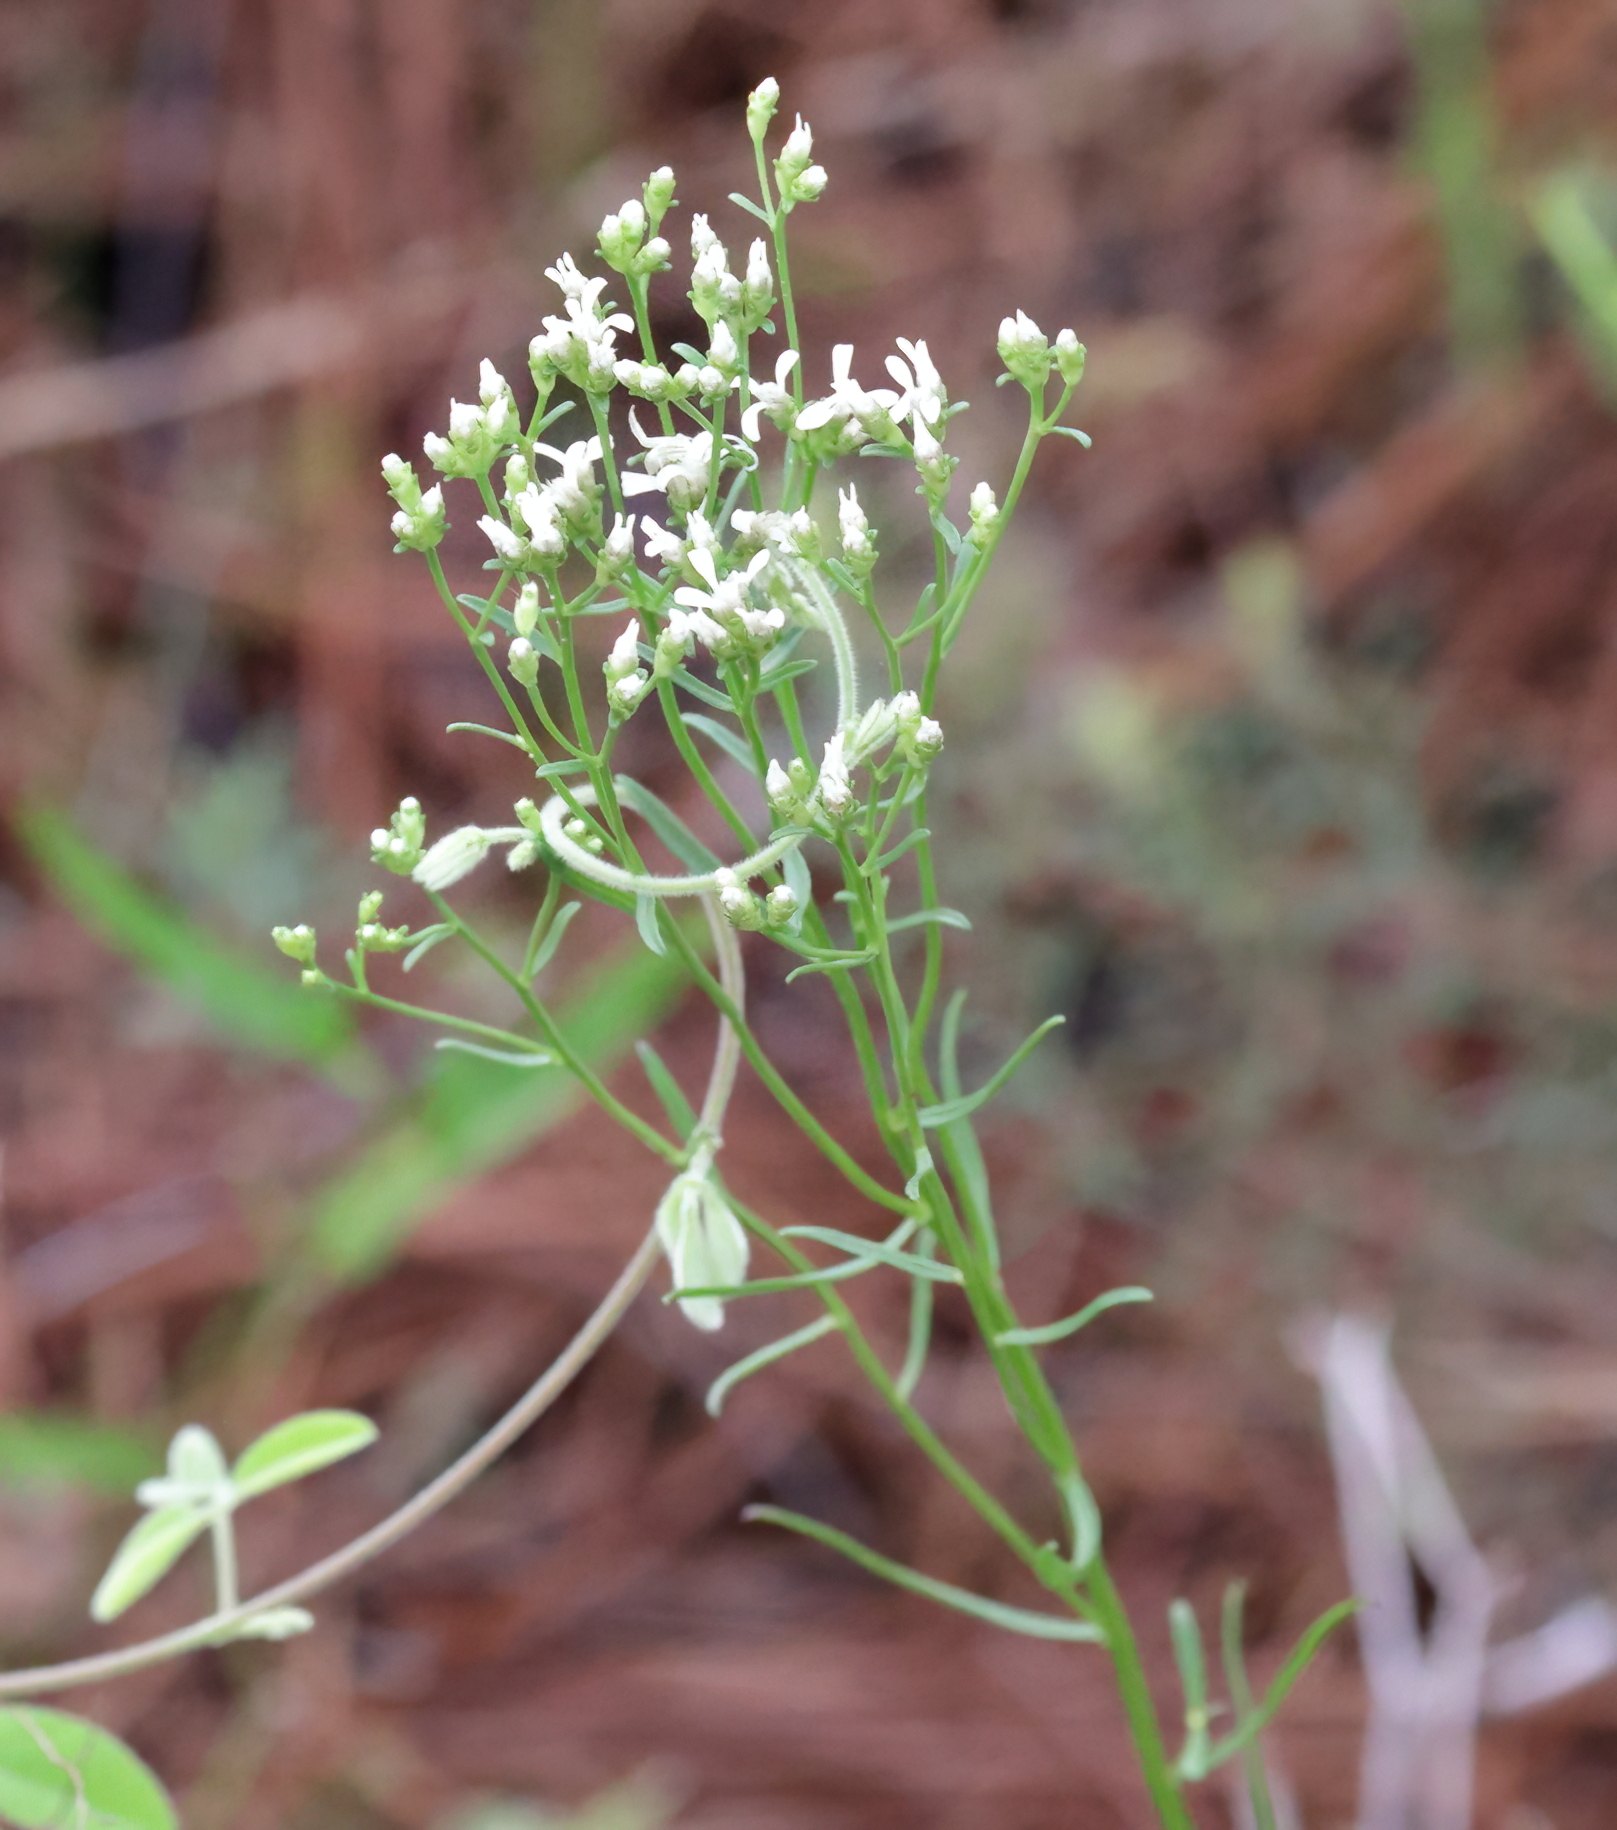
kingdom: Plantae
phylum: Tracheophyta
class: Magnoliopsida
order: Asterales
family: Asteraceae
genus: Sericocarpus
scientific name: Sericocarpus linifolius
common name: Narrow-leaf aster
